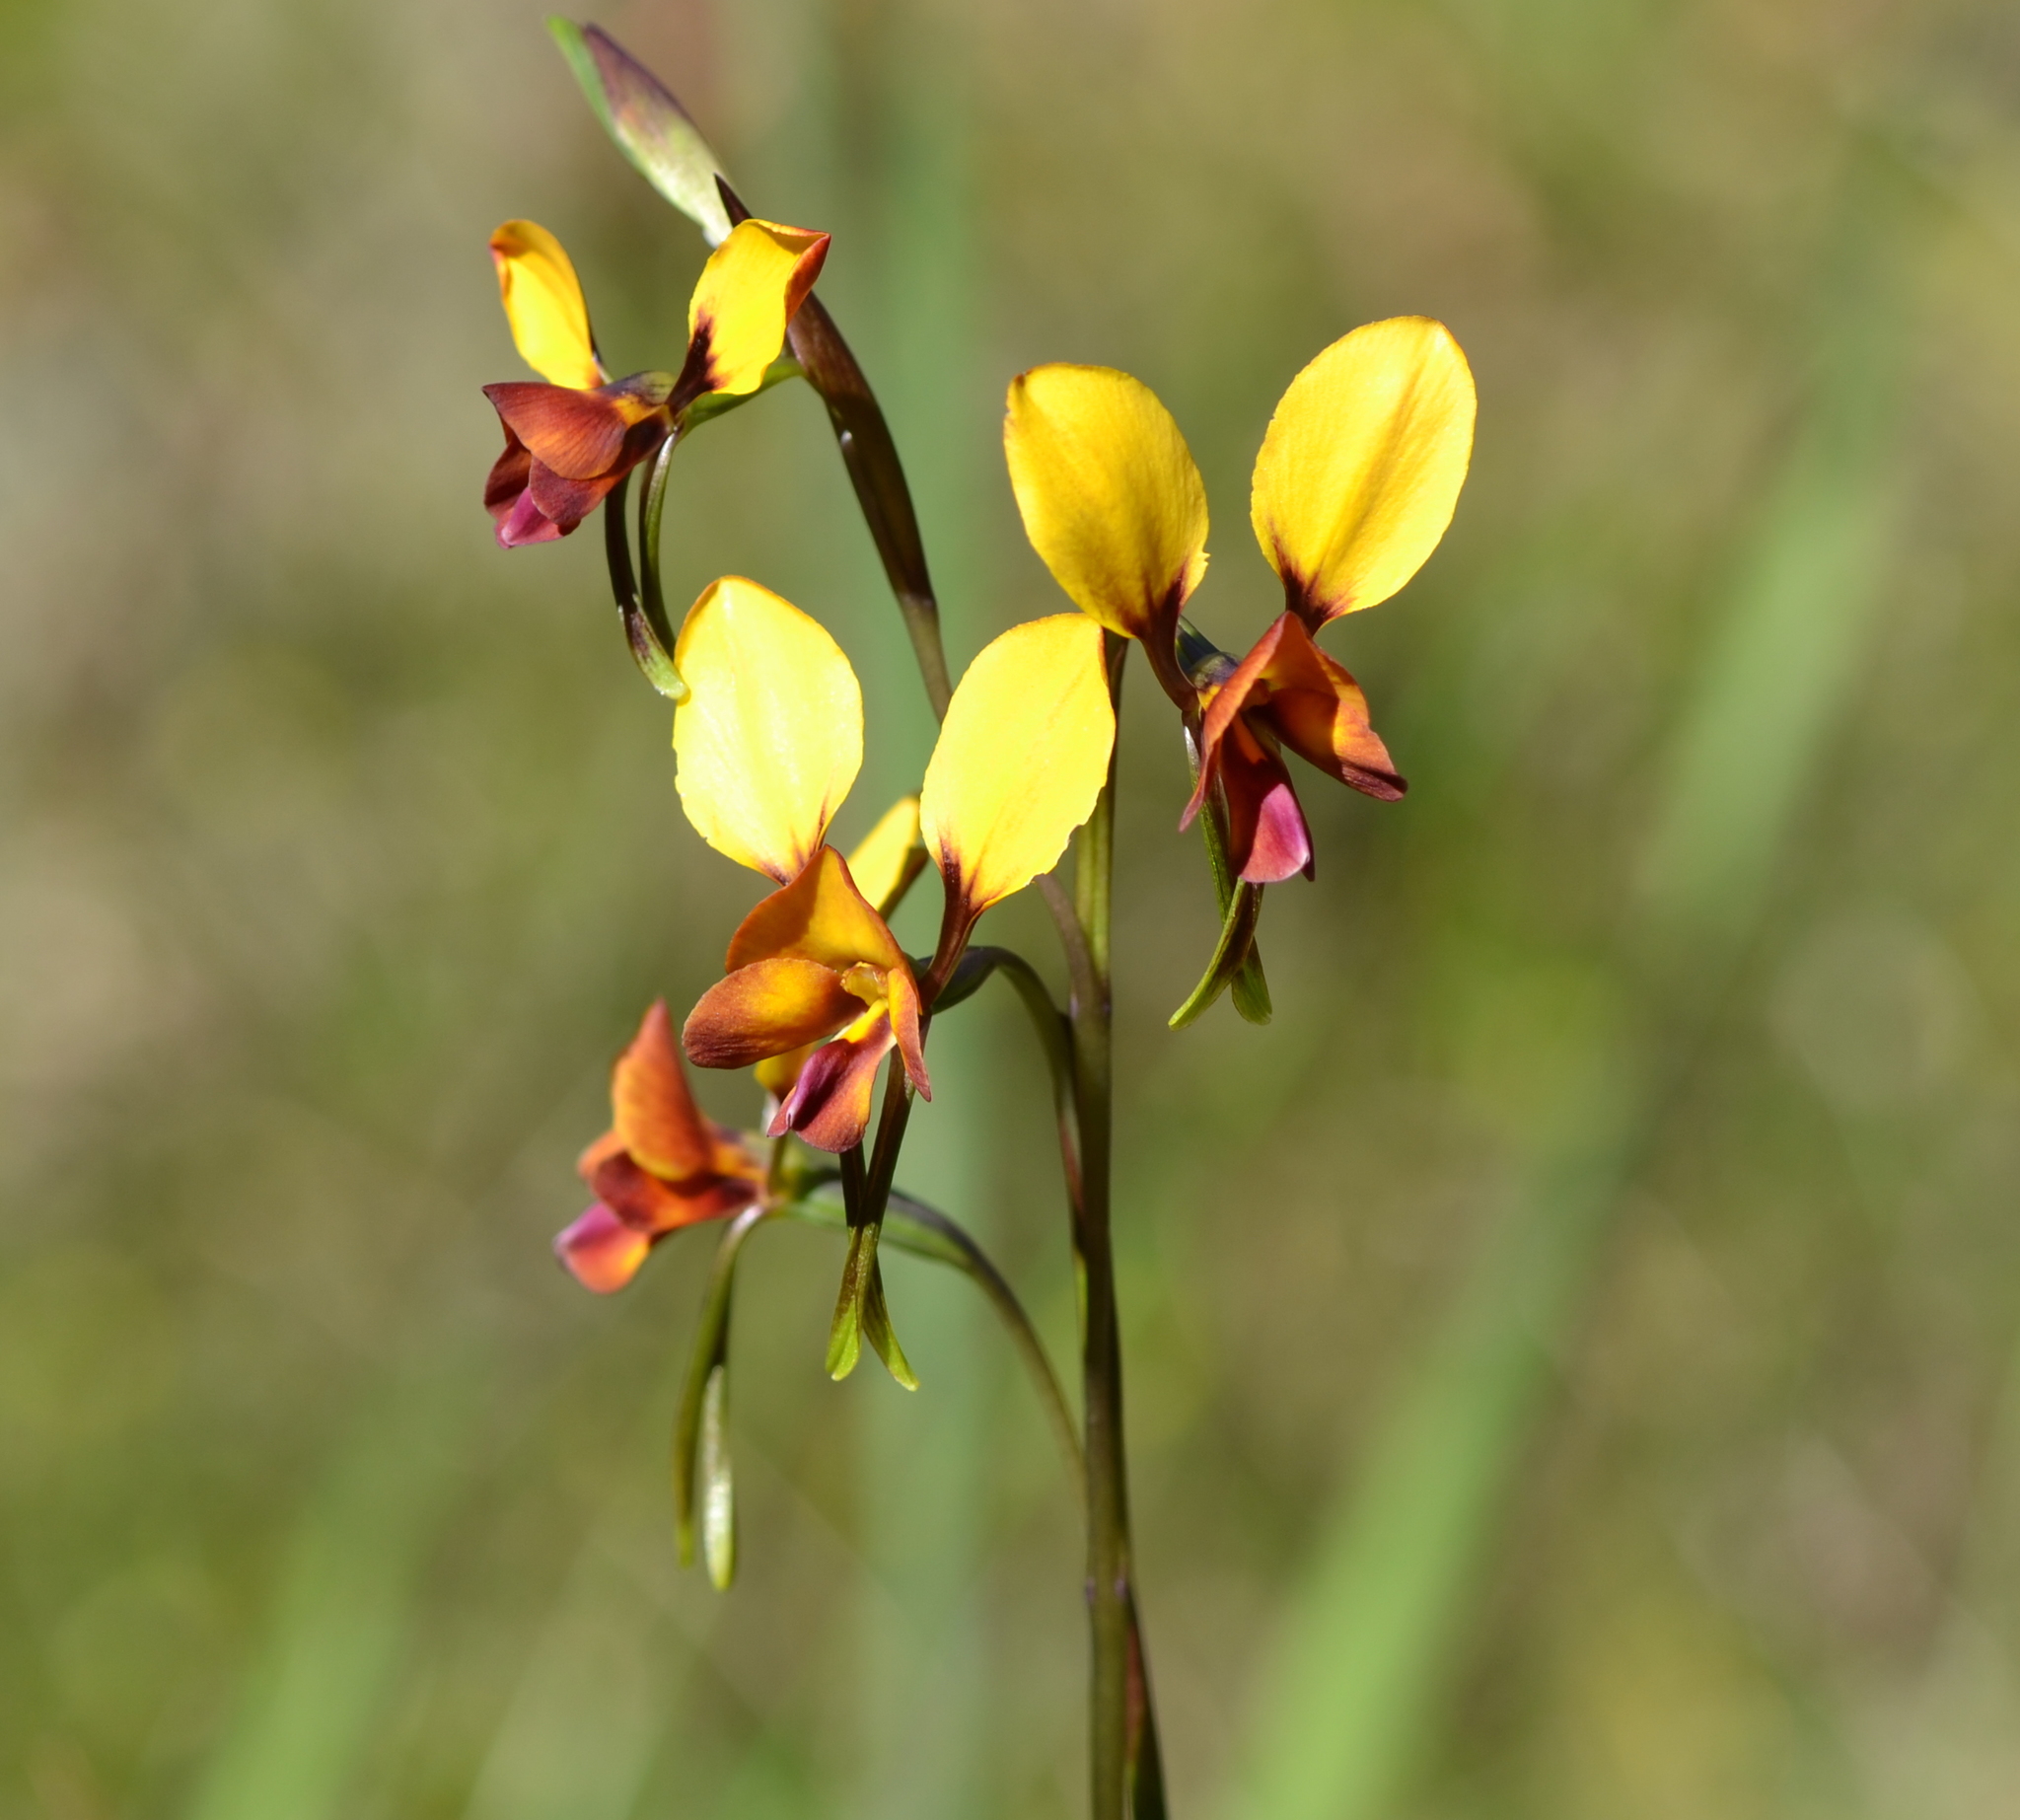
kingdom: Plantae
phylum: Tracheophyta
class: Liliopsida
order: Asparagales
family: Orchidaceae
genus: Diuris
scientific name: Diuris magnifica
